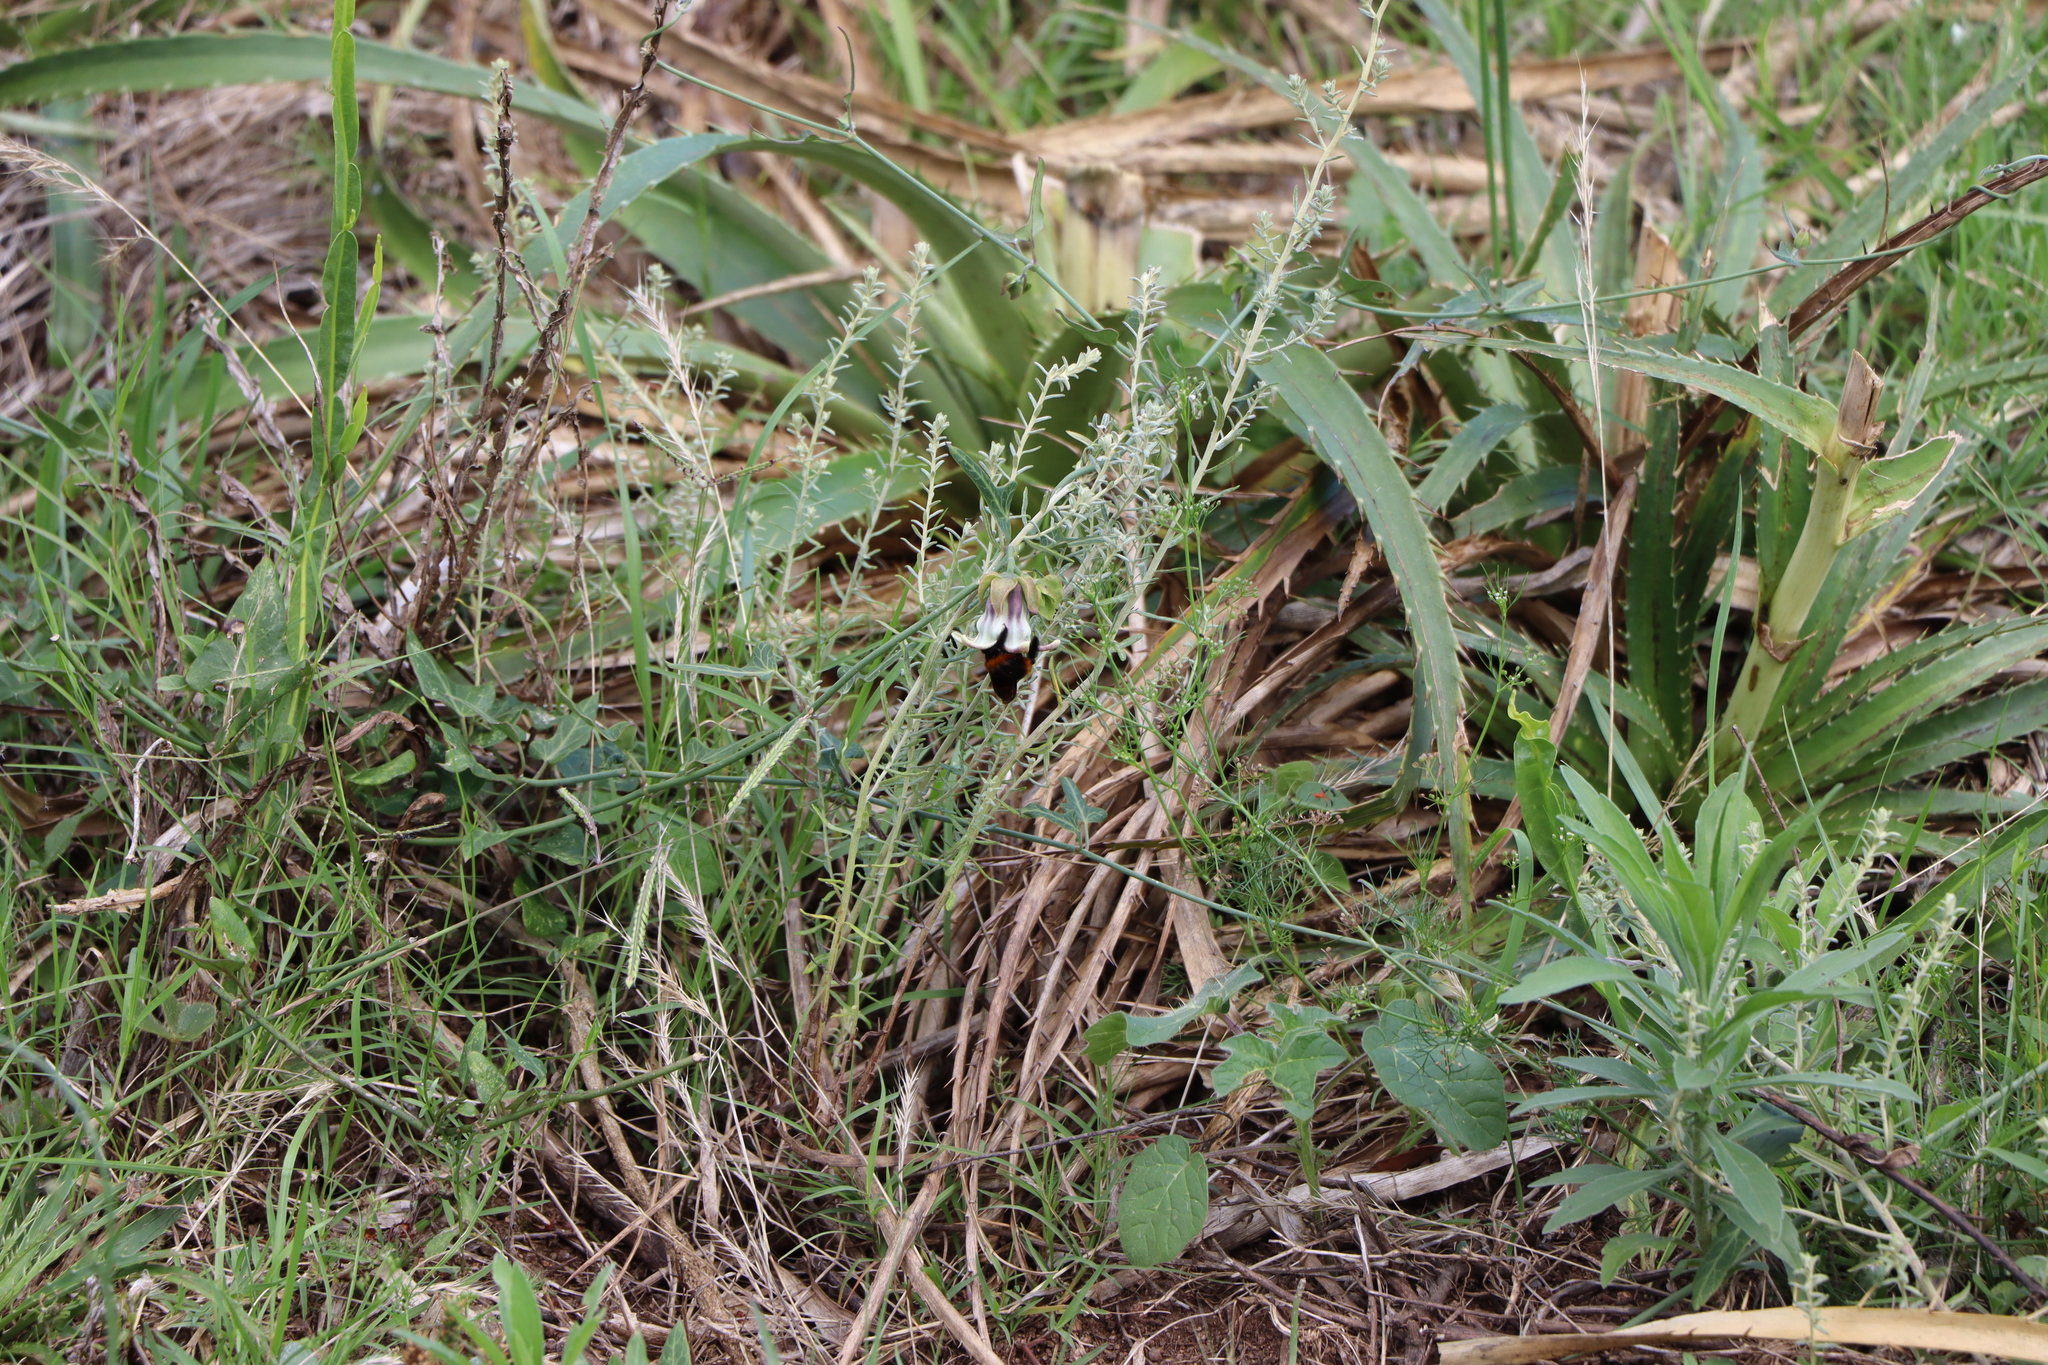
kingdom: Animalia
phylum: Arthropoda
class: Insecta
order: Hymenoptera
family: Apidae
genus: Xylocopa
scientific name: Xylocopa augusti
